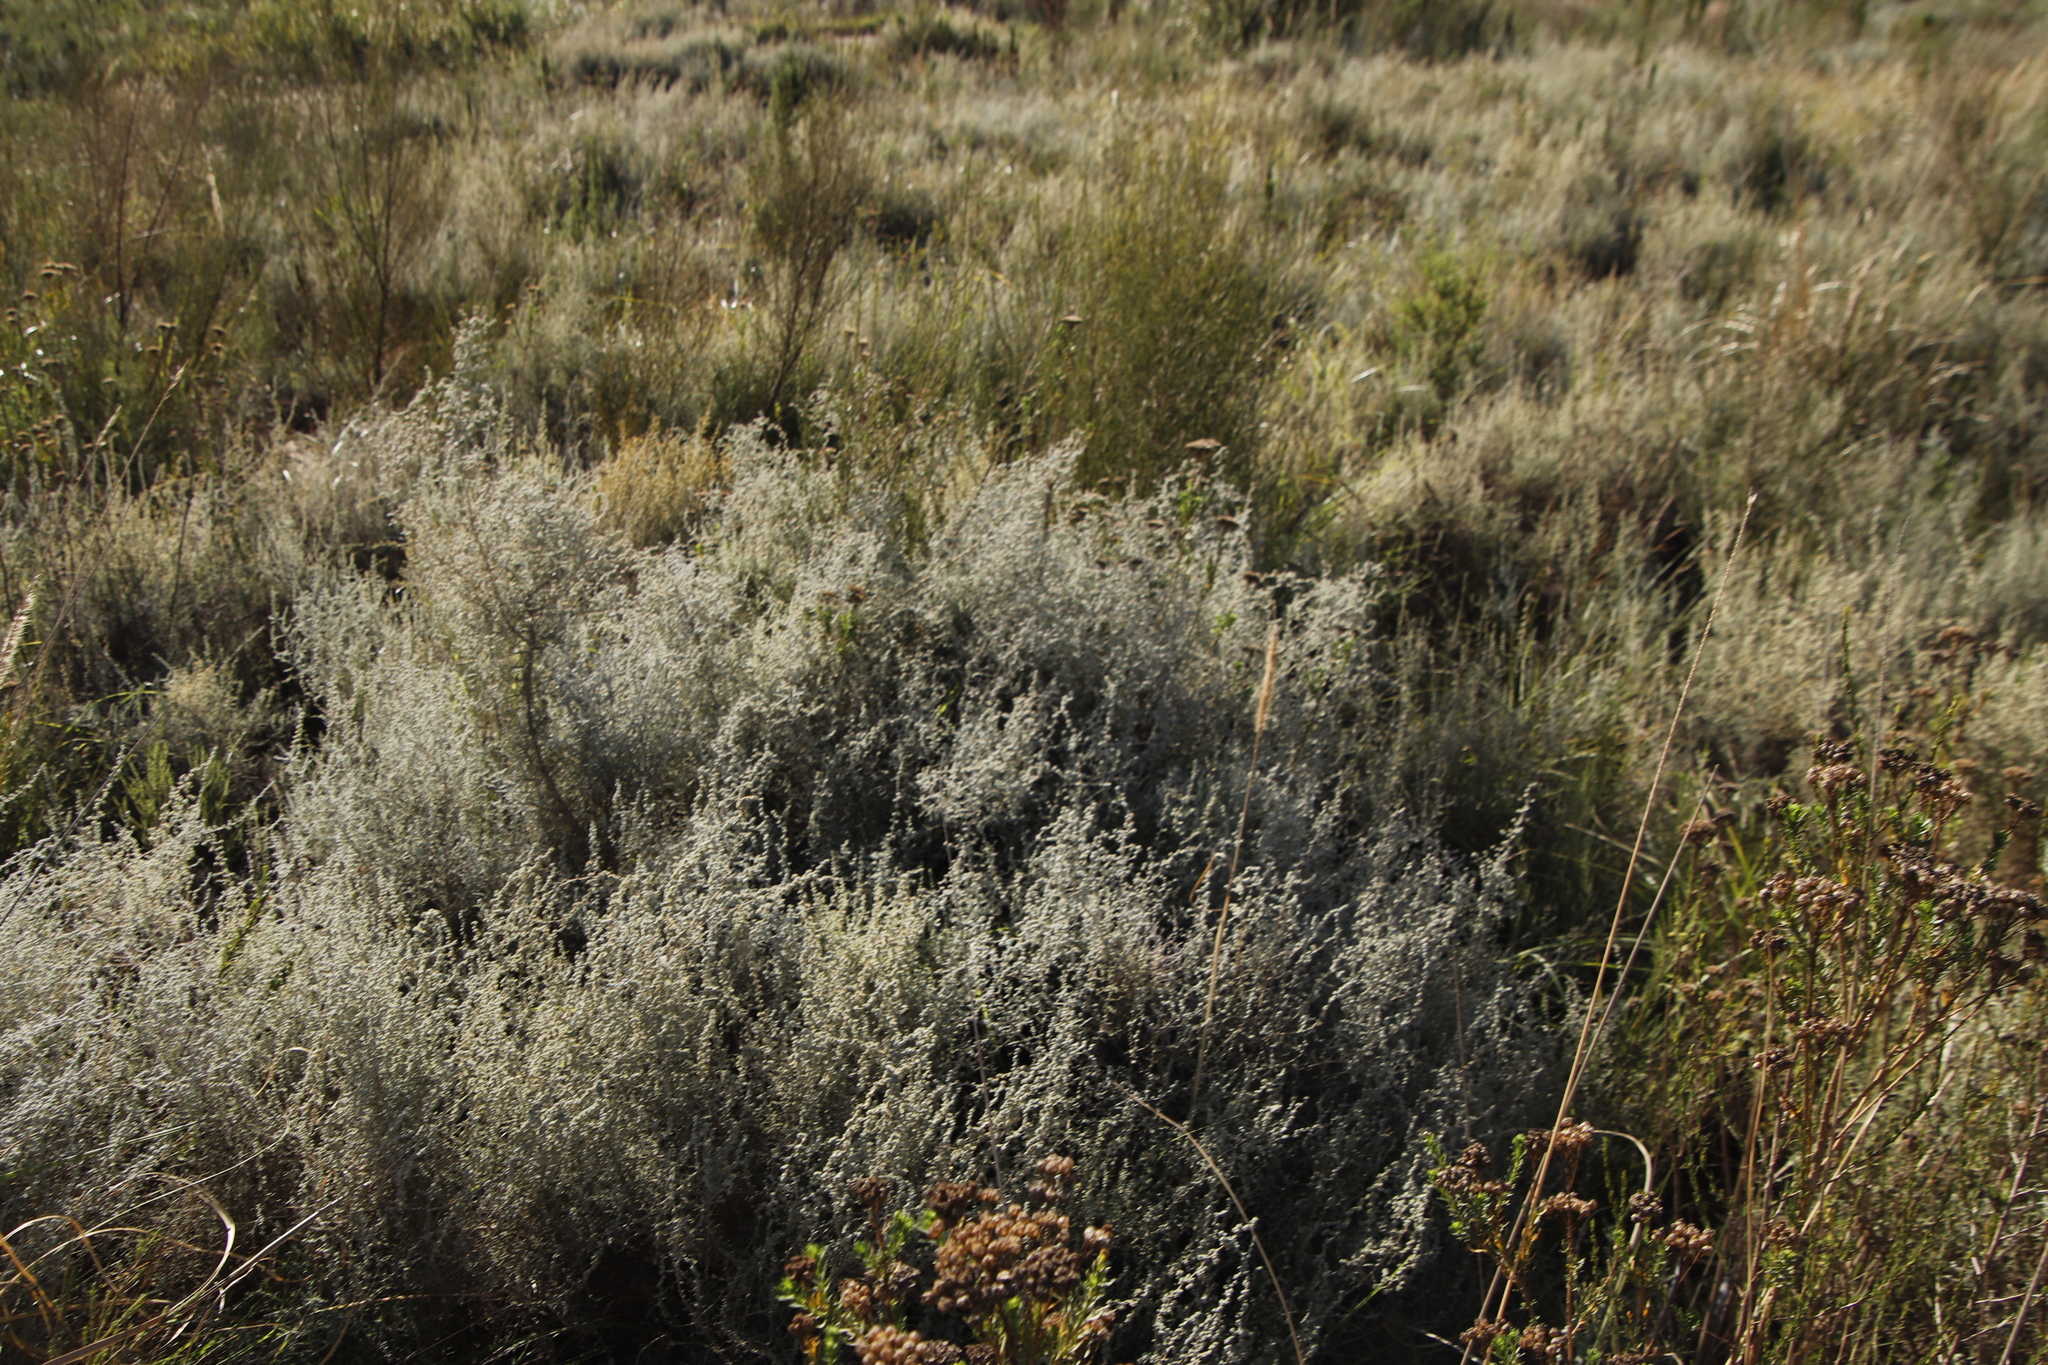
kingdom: Plantae
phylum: Tracheophyta
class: Magnoliopsida
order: Asterales
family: Asteraceae
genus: Seriphium
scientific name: Seriphium plumosum
